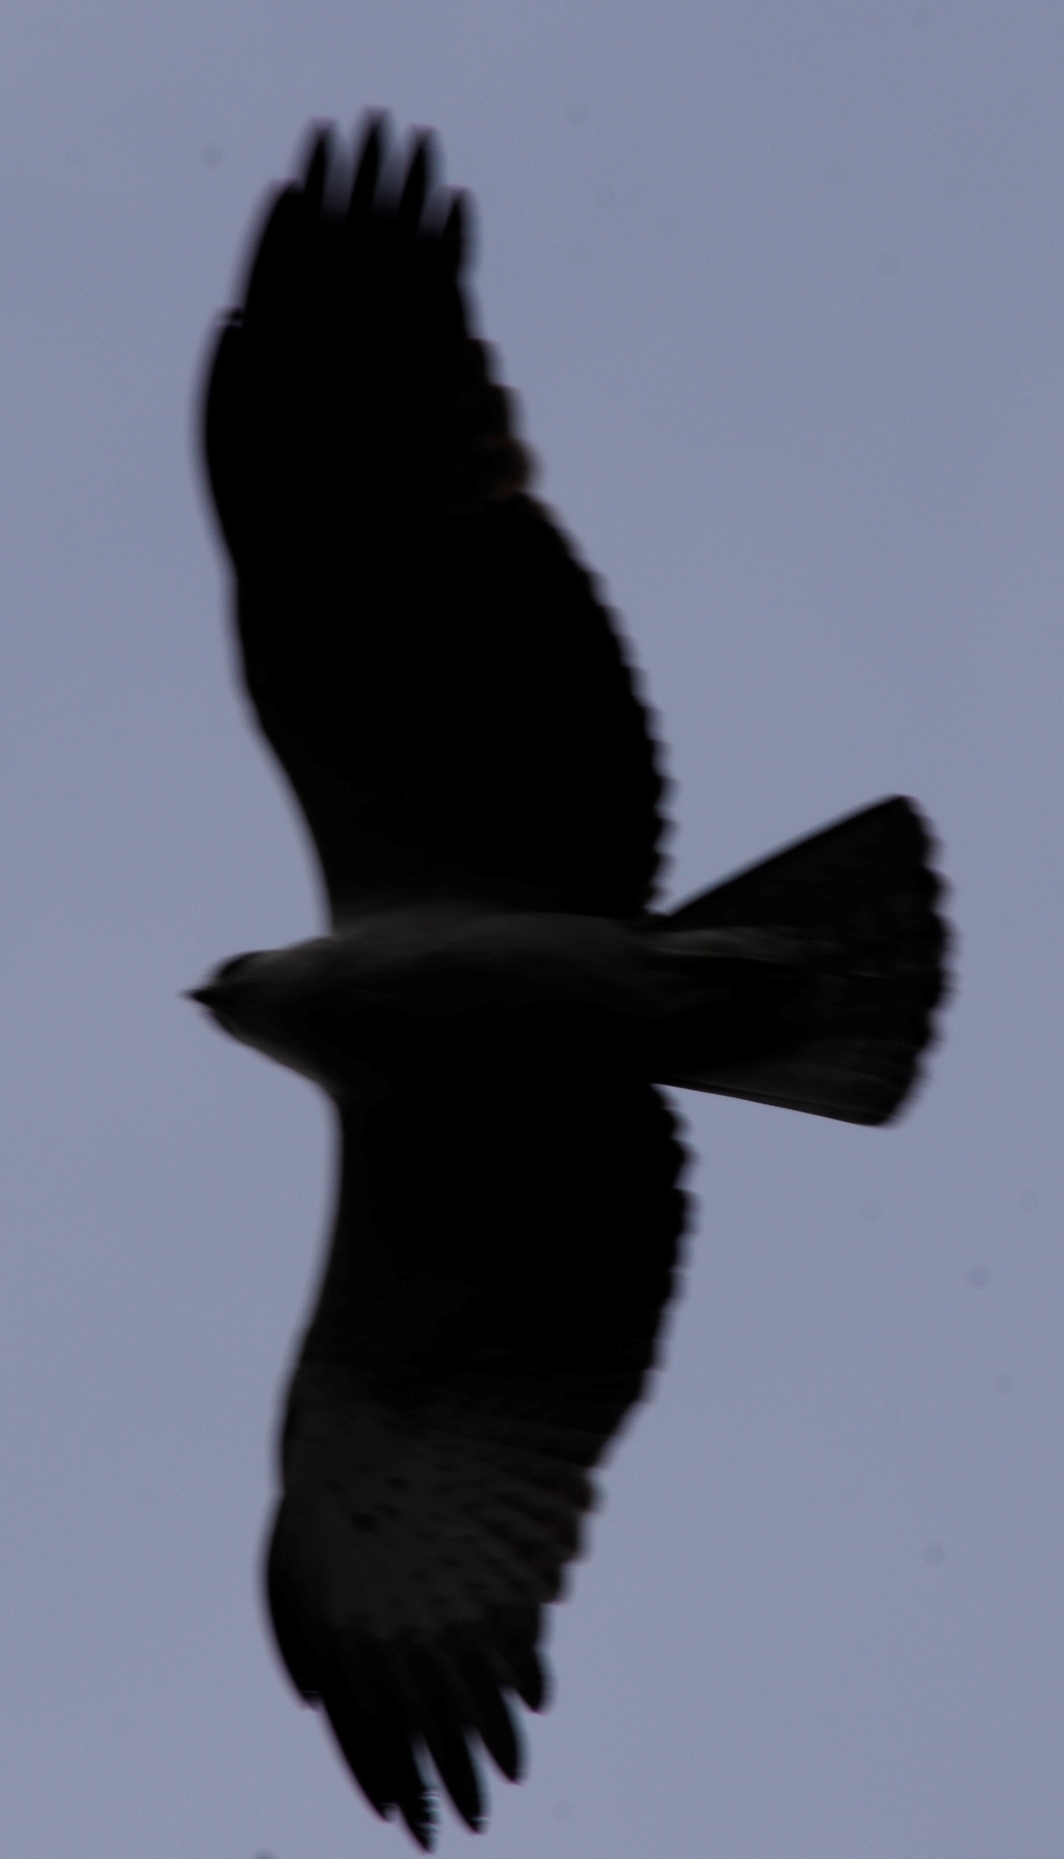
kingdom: Animalia
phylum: Chordata
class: Aves
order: Accipitriformes
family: Accipitridae
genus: Hieraaetus
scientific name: Hieraaetus wahlbergi
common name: Wahlberg's eagle
